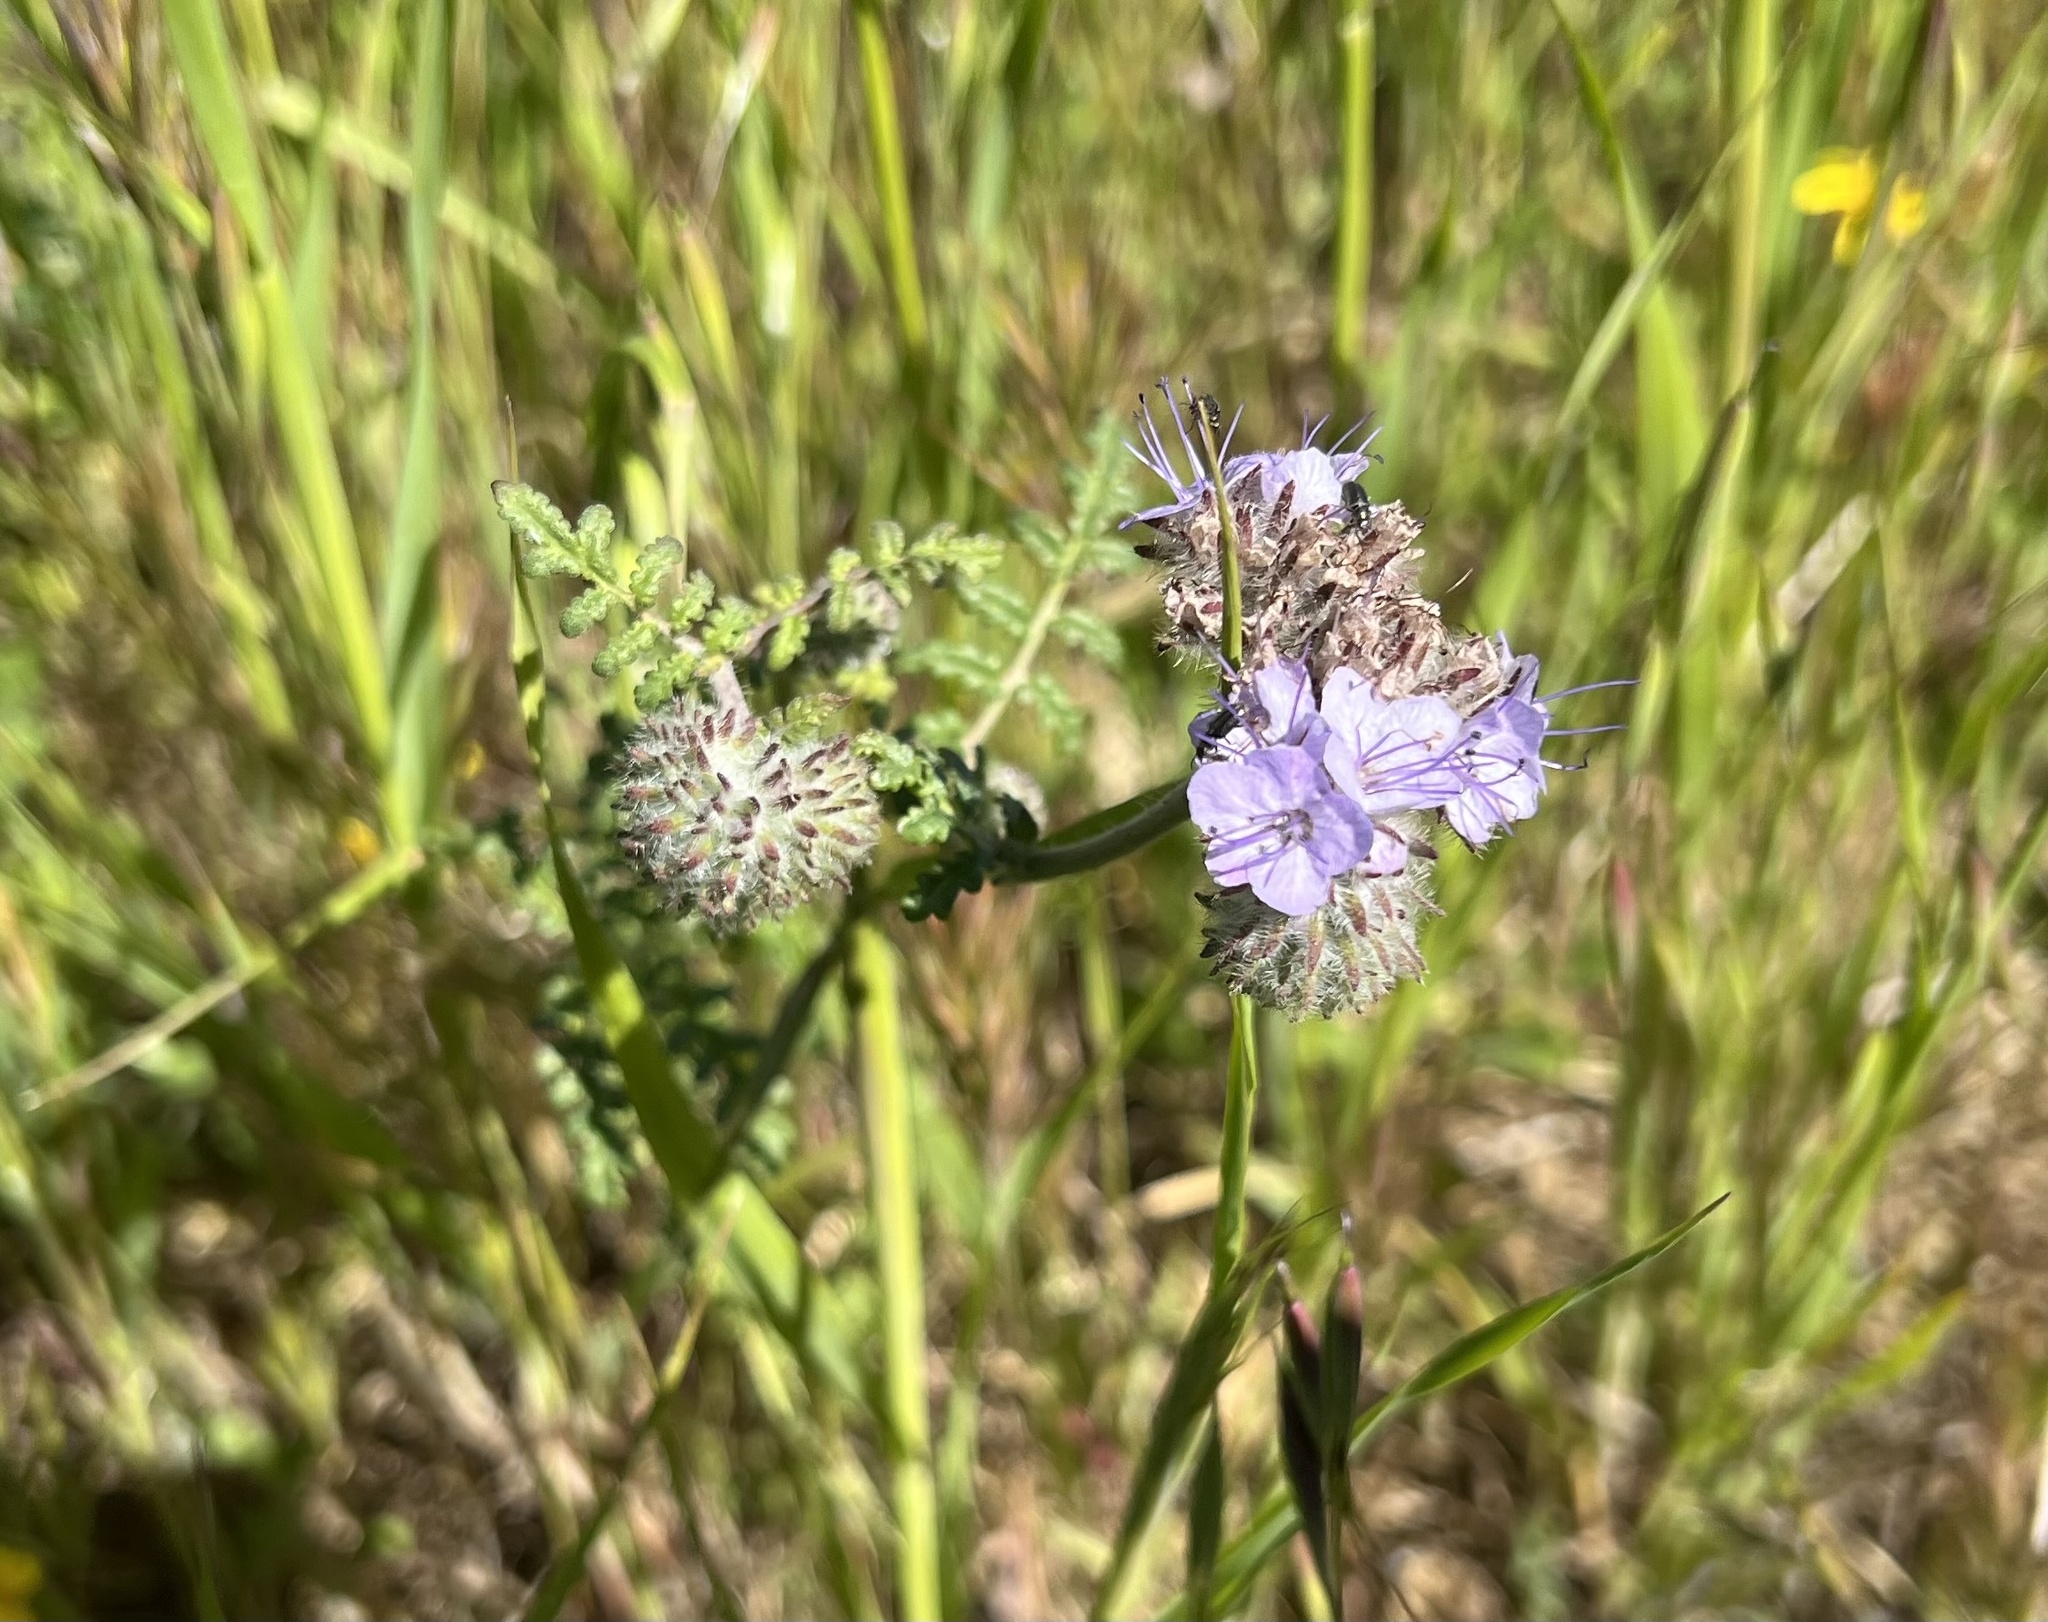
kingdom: Plantae
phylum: Tracheophyta
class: Magnoliopsida
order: Boraginales
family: Hydrophyllaceae
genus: Phacelia
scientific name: Phacelia distans
